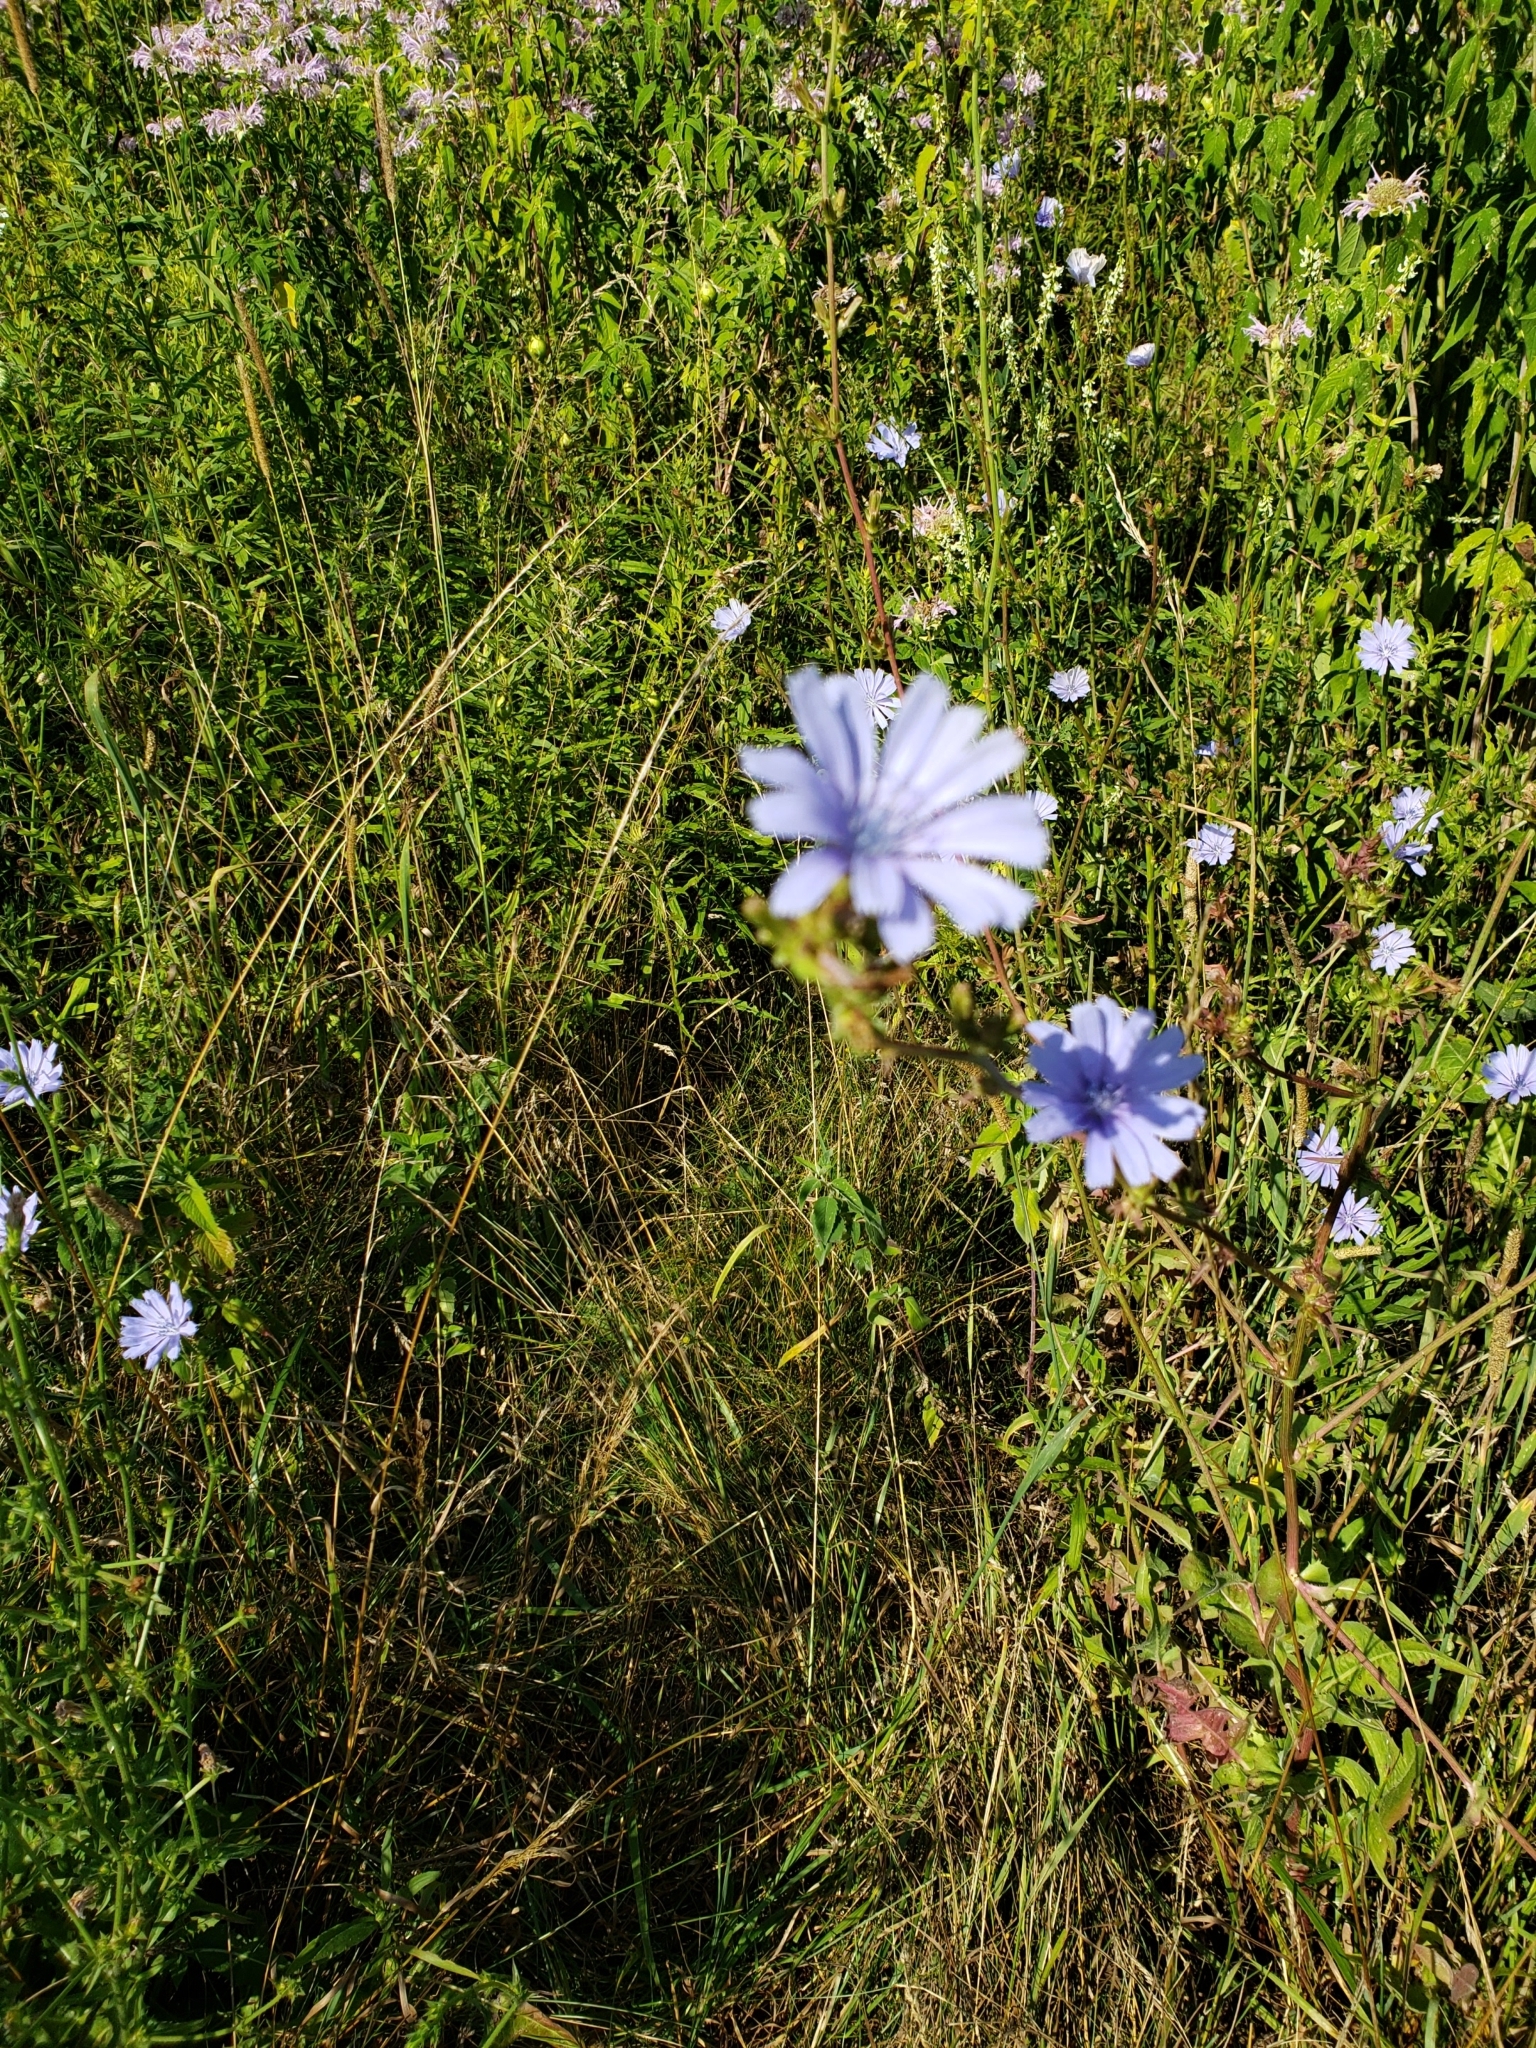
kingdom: Plantae
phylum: Tracheophyta
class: Magnoliopsida
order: Asterales
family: Asteraceae
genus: Cichorium
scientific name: Cichorium intybus
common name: Chicory
